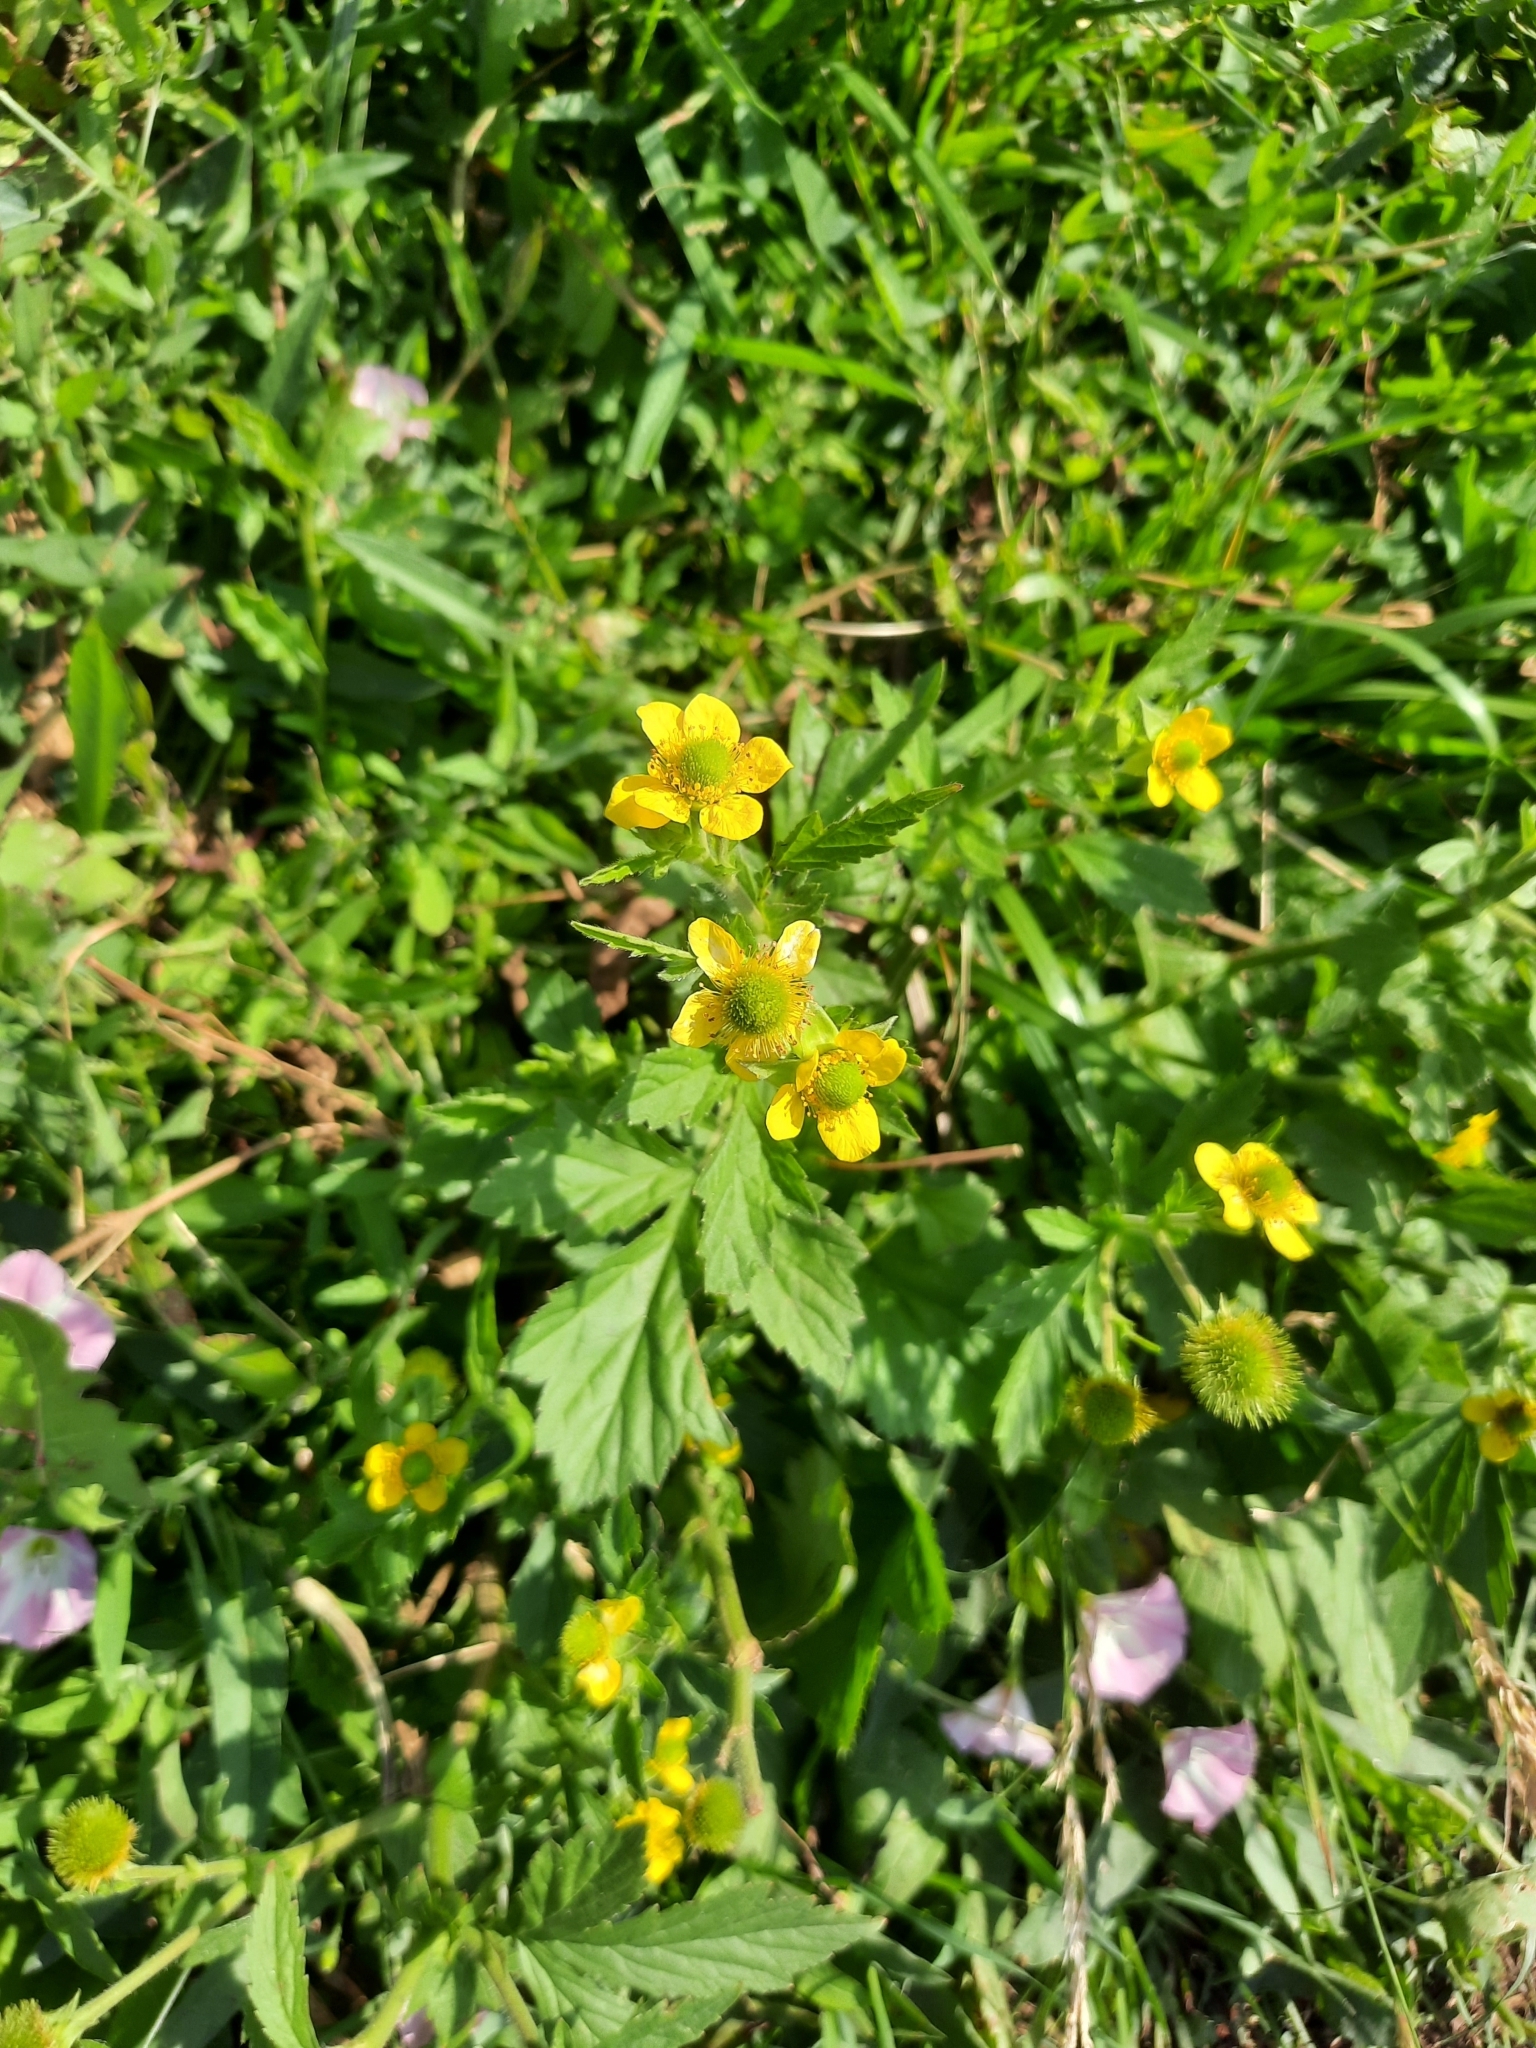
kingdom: Plantae
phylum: Tracheophyta
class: Magnoliopsida
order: Rosales
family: Rosaceae
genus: Geum
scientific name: Geum aleppicum
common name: Yellow avens
